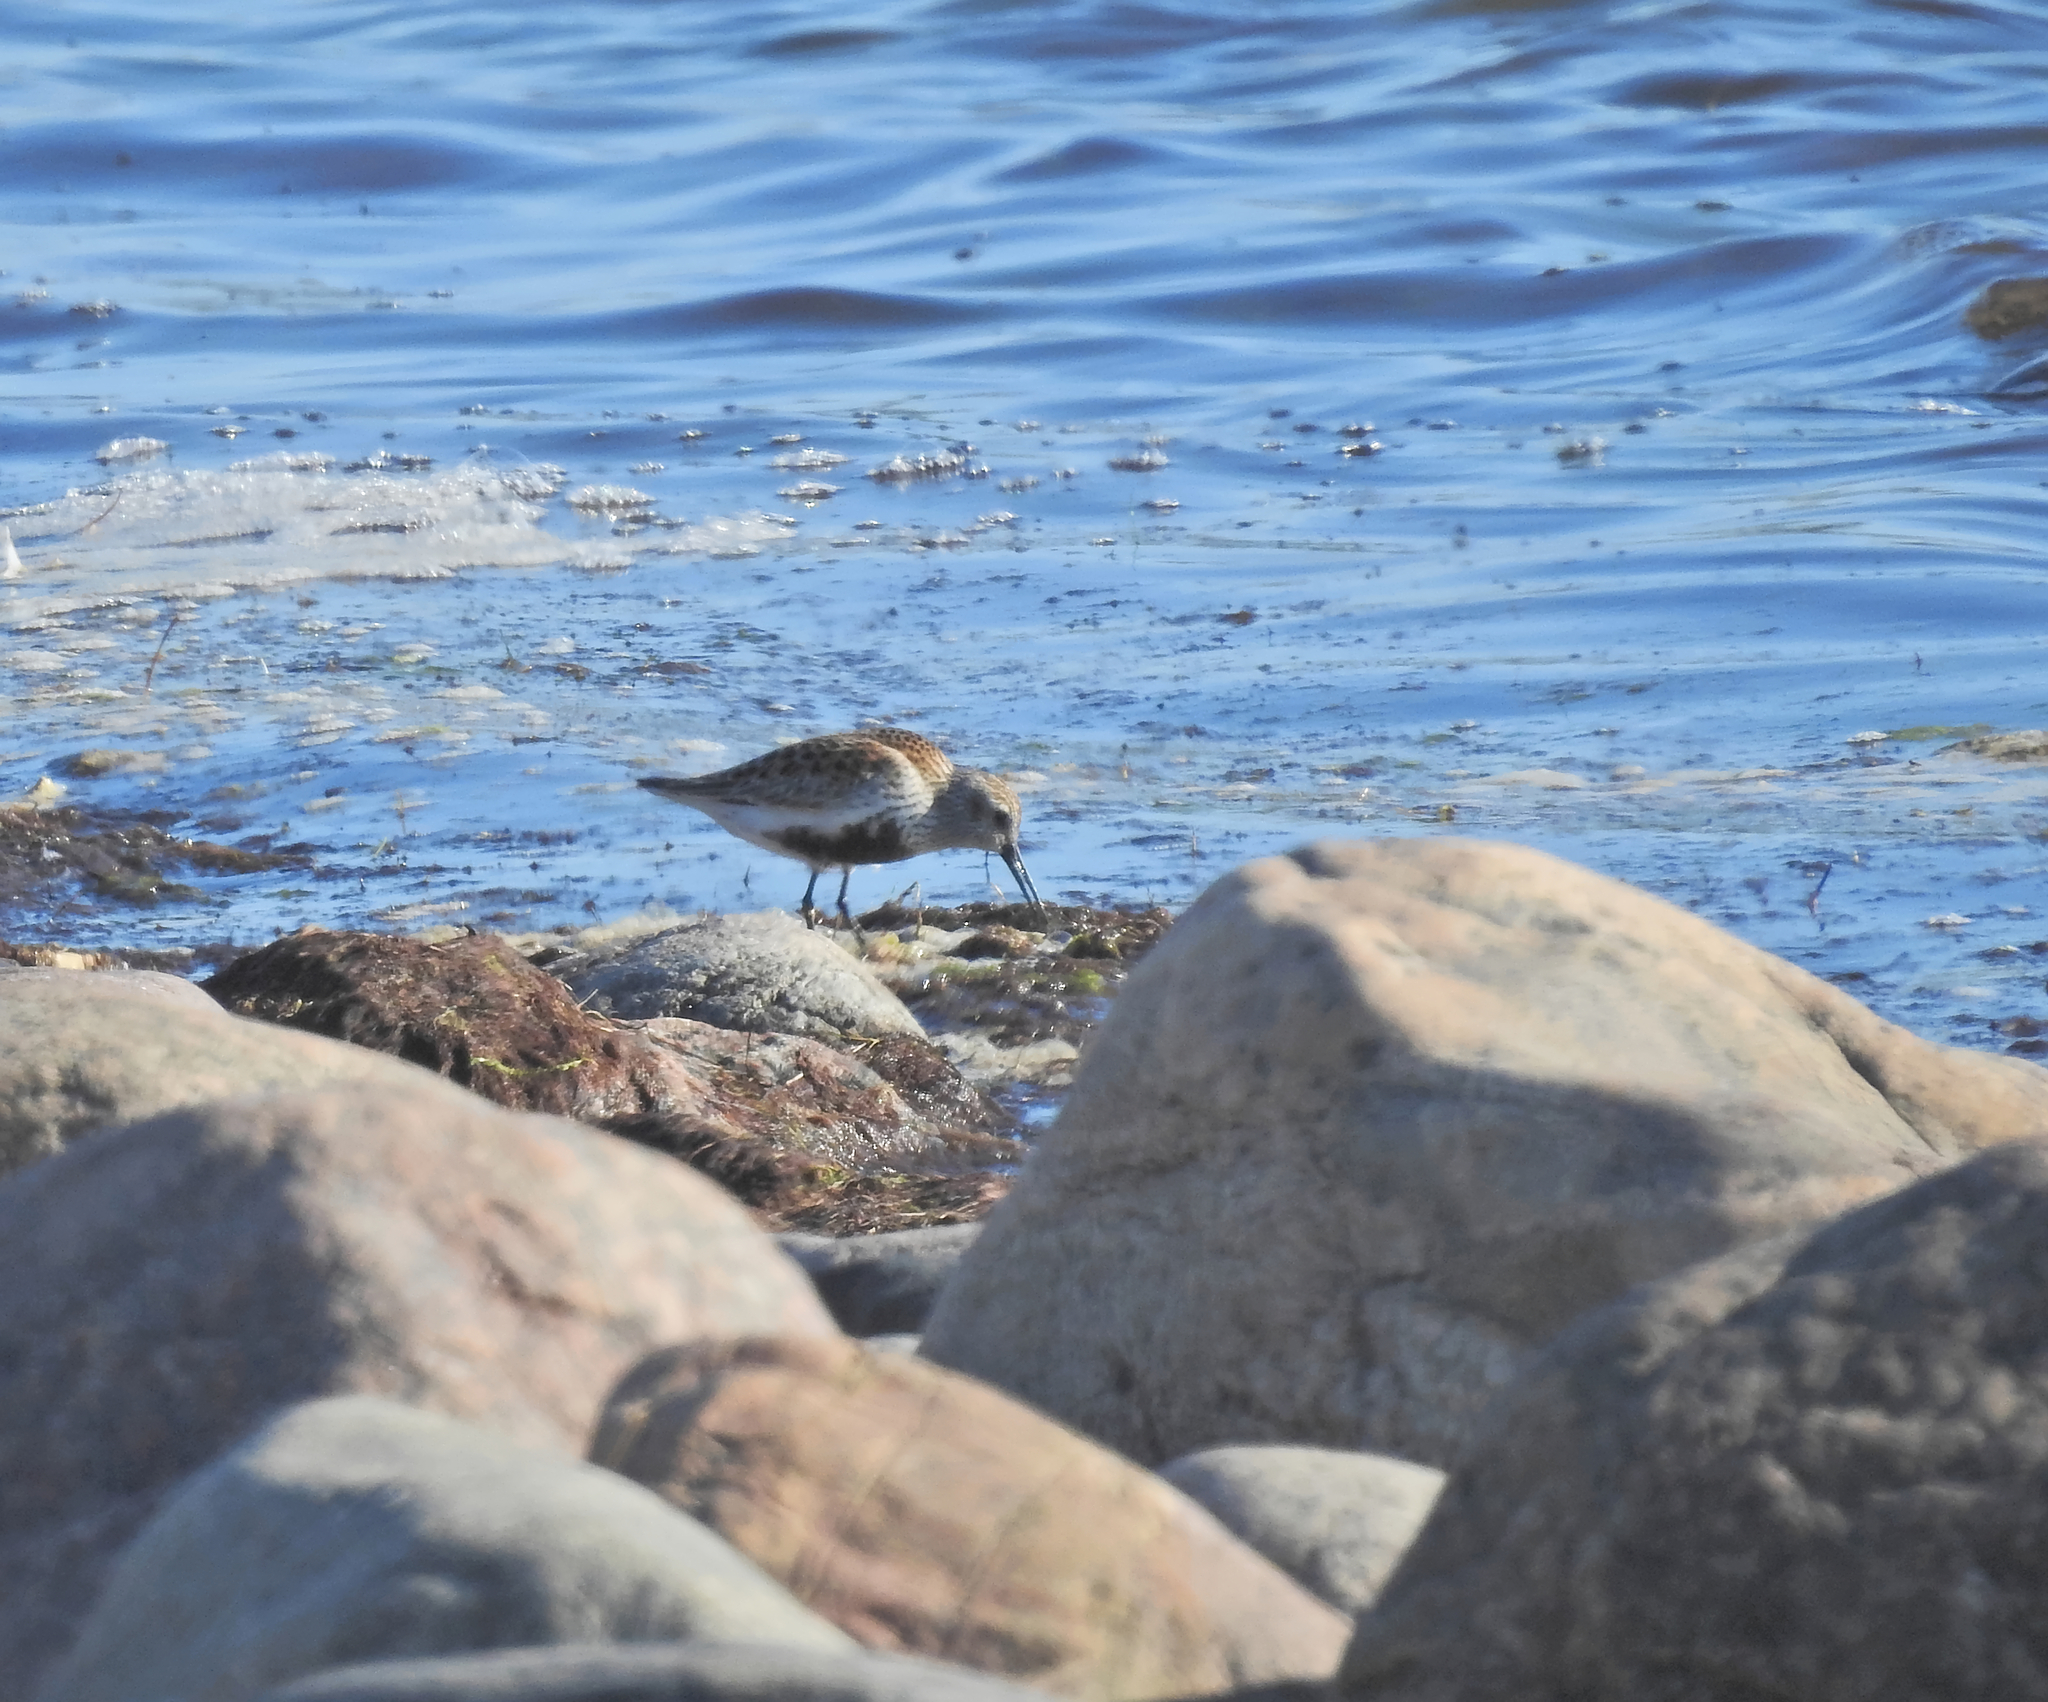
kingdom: Animalia
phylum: Chordata
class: Aves
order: Charadriiformes
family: Scolopacidae
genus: Calidris
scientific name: Calidris alpina
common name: Dunlin
